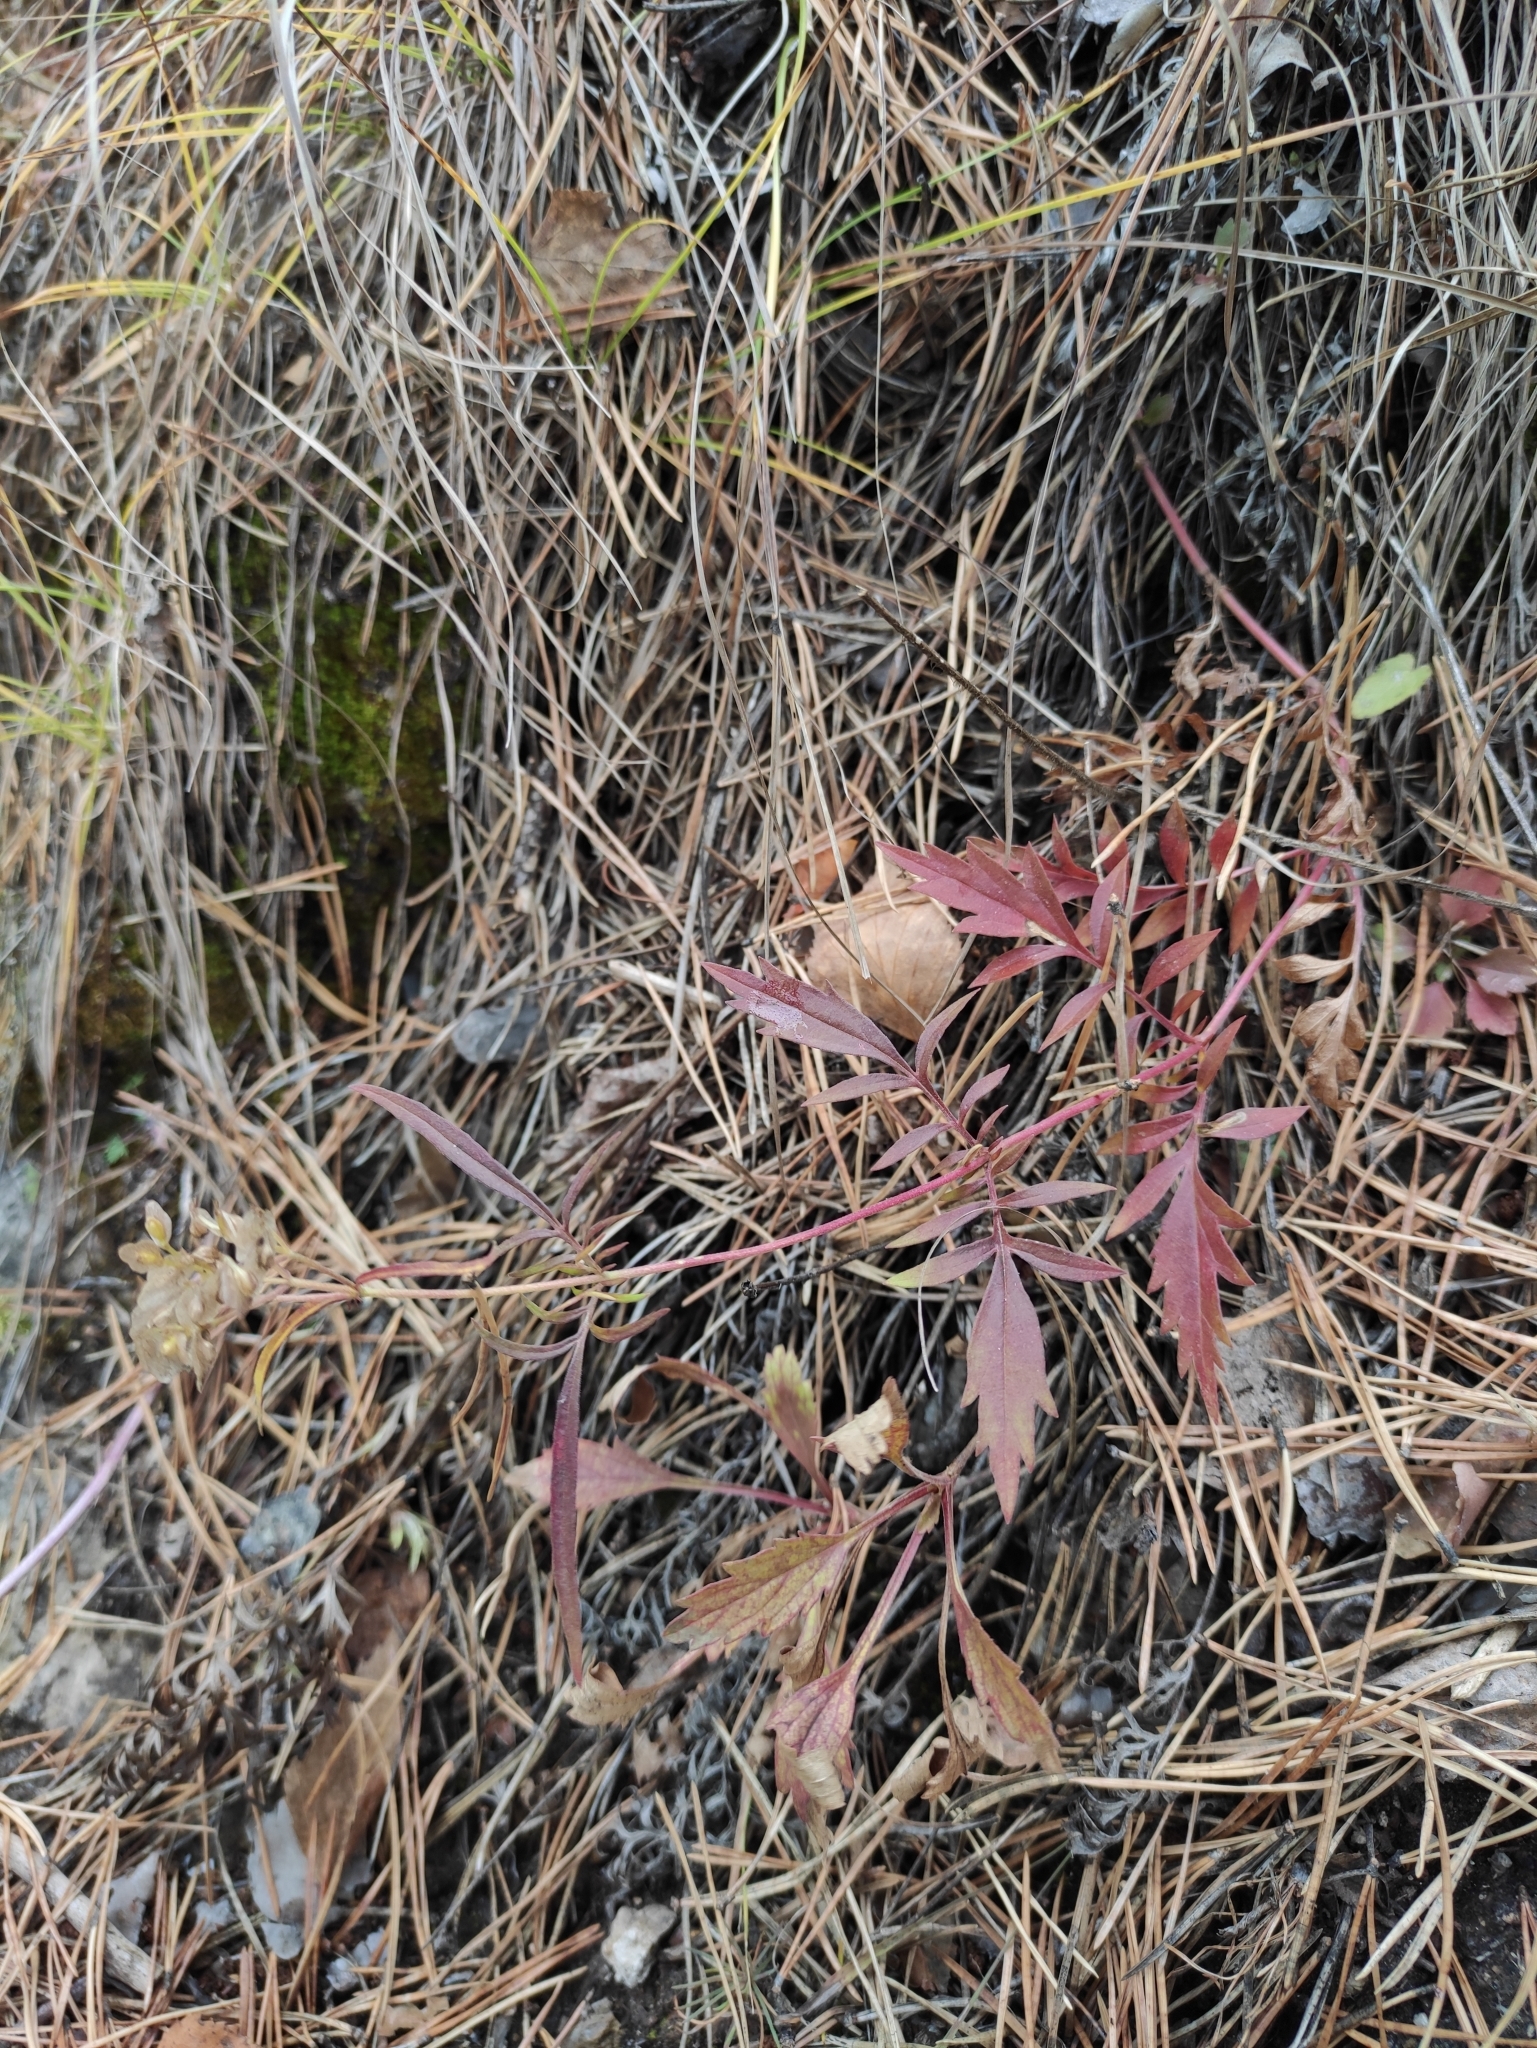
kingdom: Plantae
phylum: Tracheophyta
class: Magnoliopsida
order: Dipsacales
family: Caprifoliaceae
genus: Patrinia
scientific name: Patrinia rupestris
